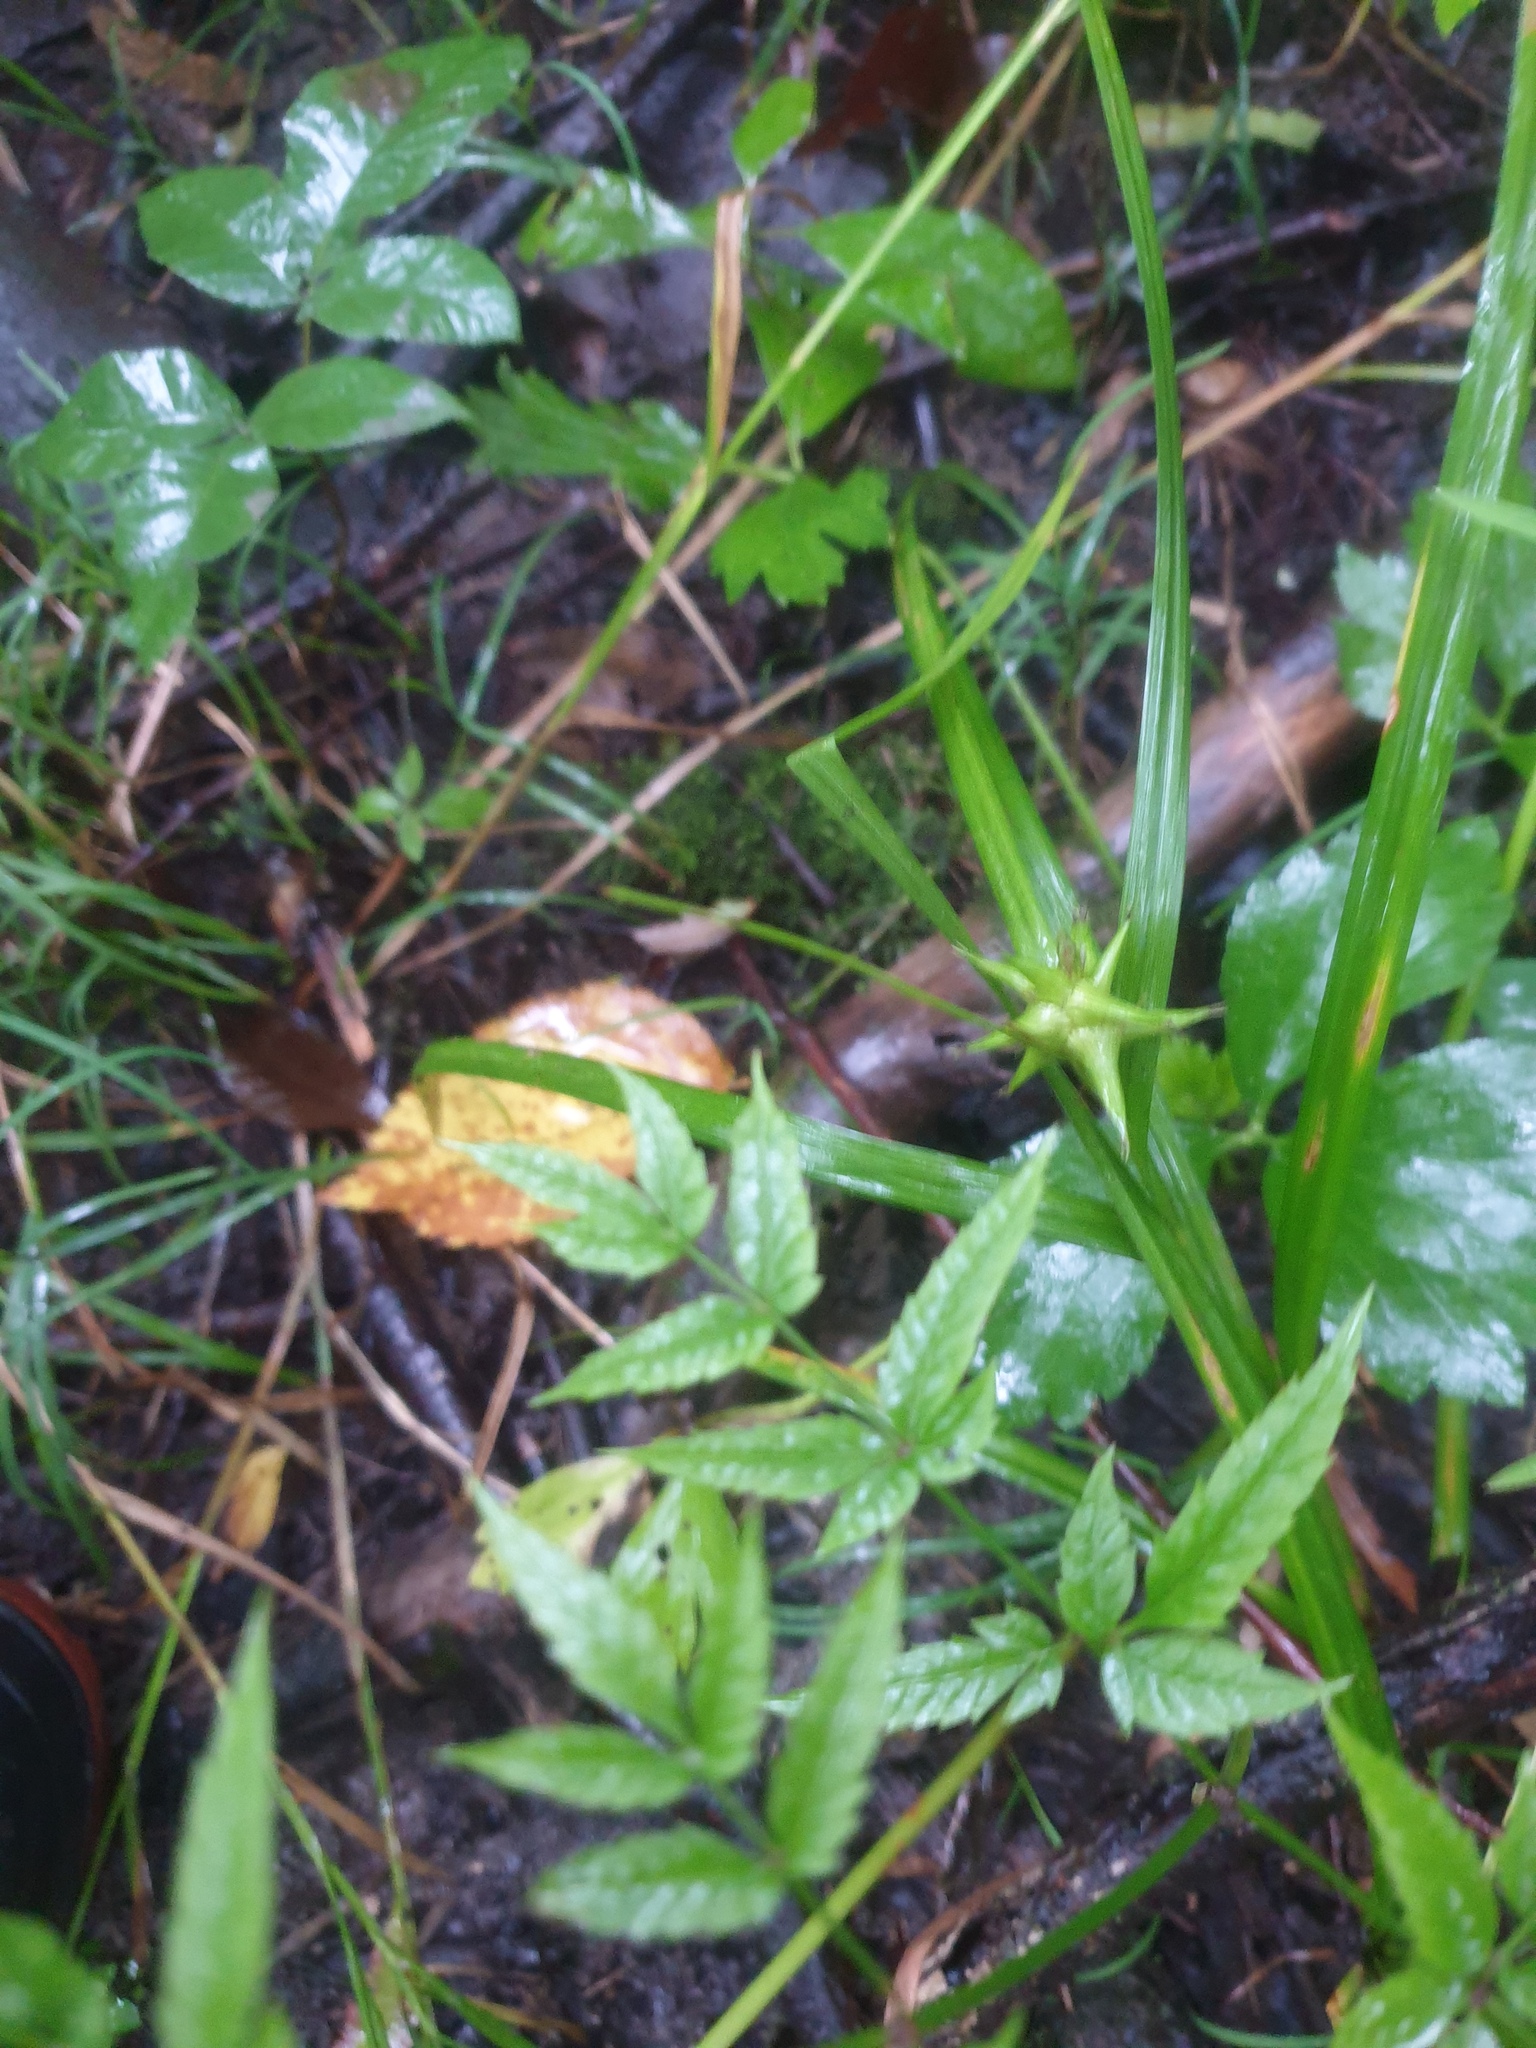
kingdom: Plantae
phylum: Tracheophyta
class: Magnoliopsida
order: Apiales
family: Apiaceae
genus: Cicuta
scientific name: Cicuta maculata
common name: Spotted cowbane
